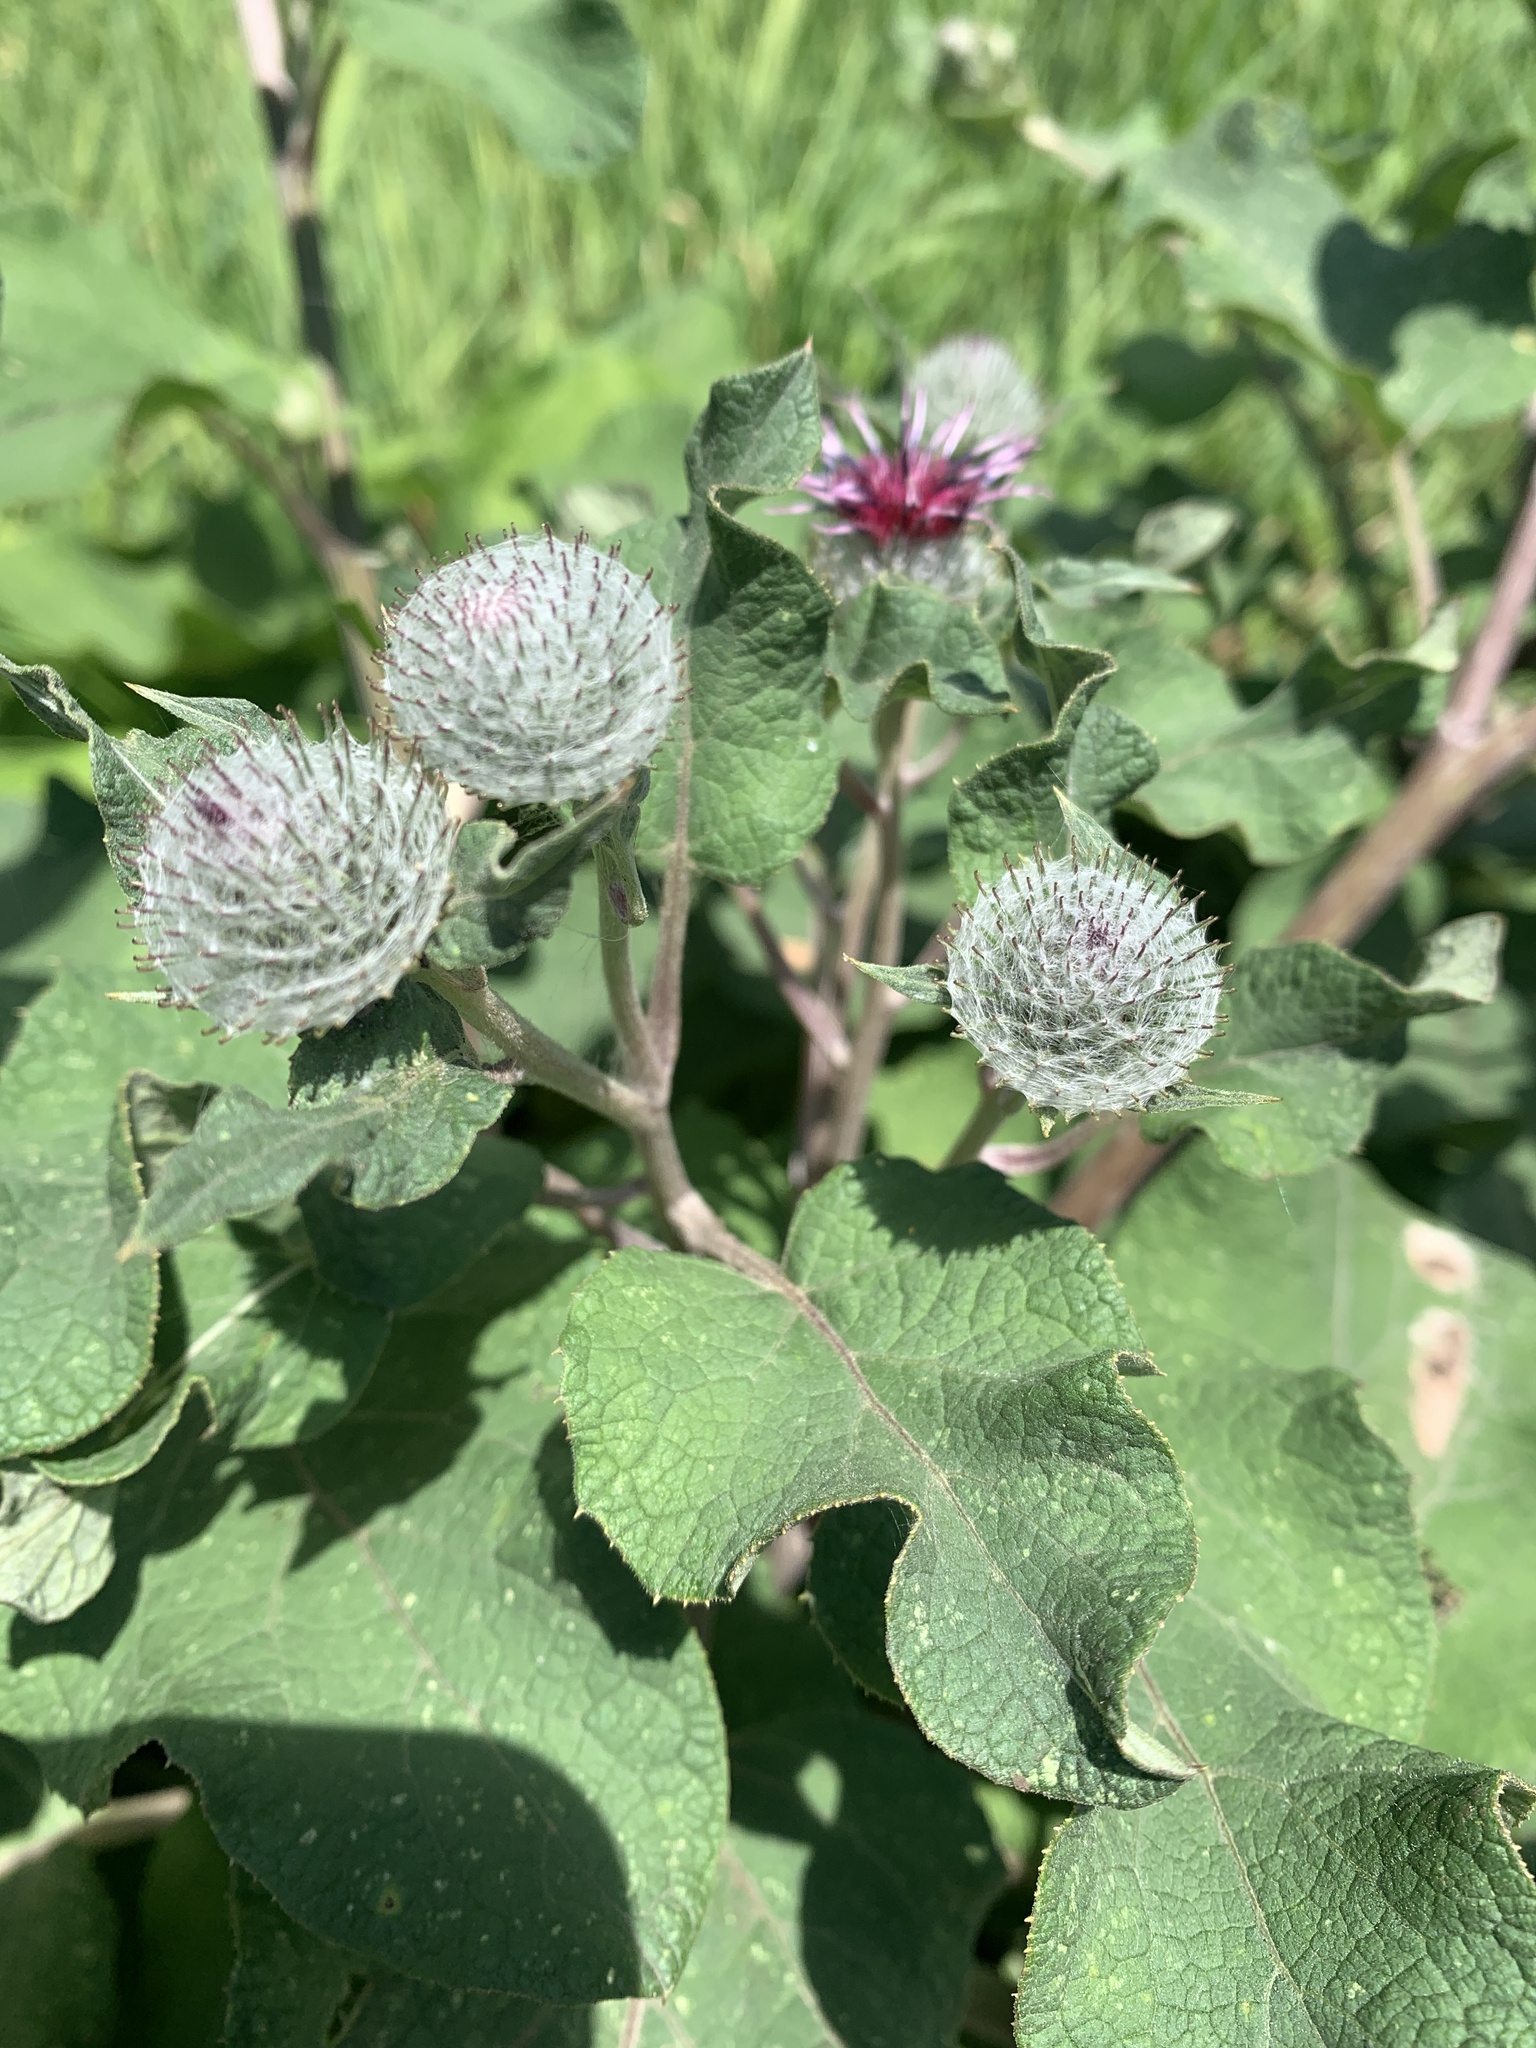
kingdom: Plantae
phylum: Tracheophyta
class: Magnoliopsida
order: Asterales
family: Asteraceae
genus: Arctium
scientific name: Arctium tomentosum
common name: Woolly burdock
